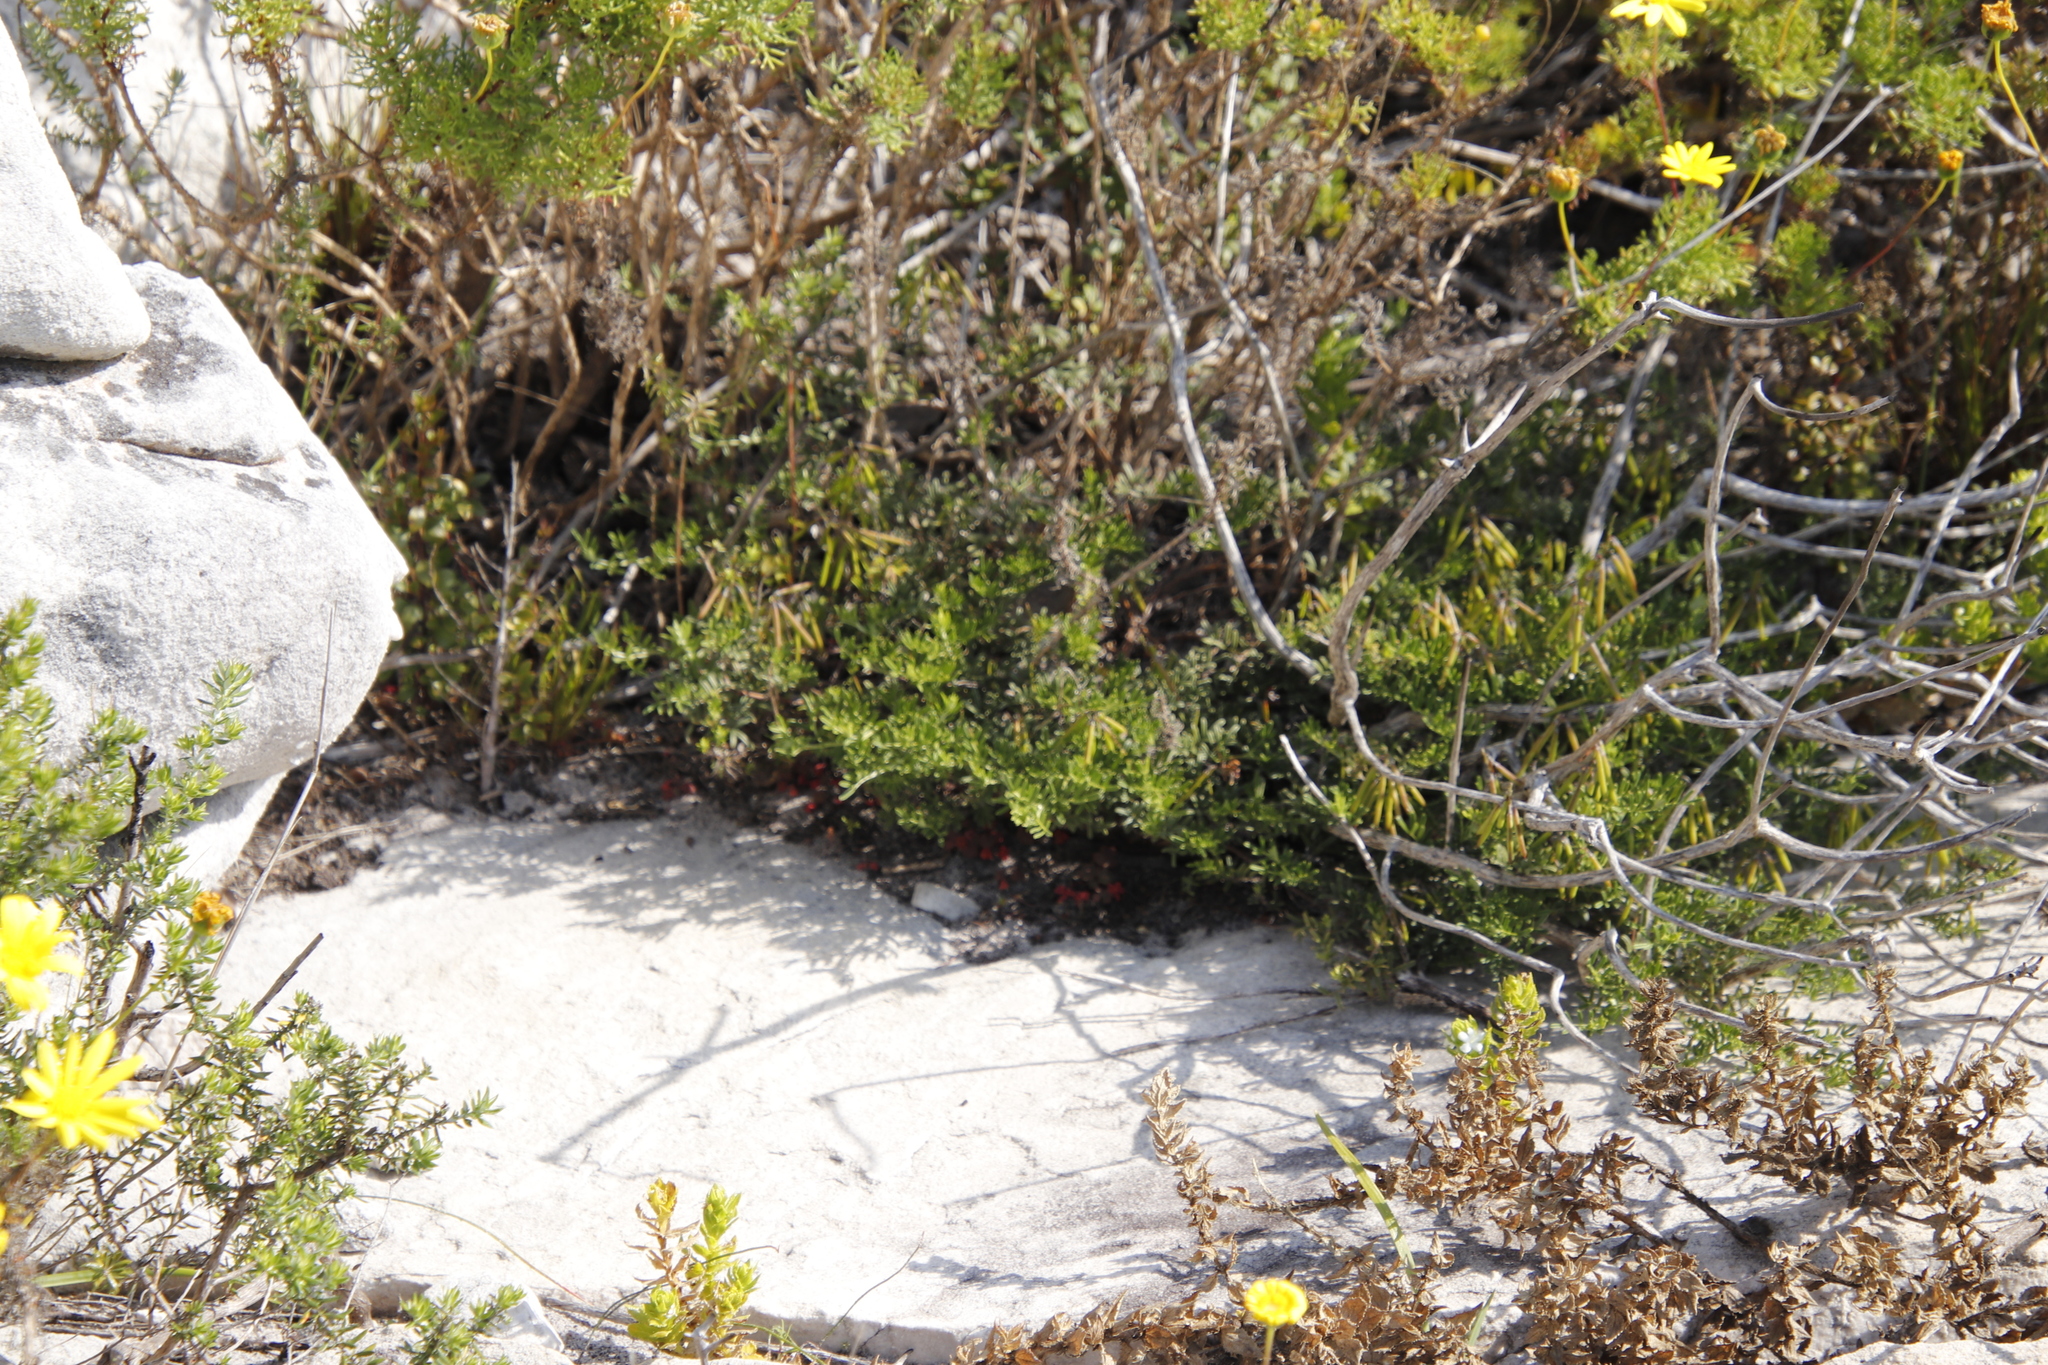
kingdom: Plantae
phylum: Tracheophyta
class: Magnoliopsida
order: Fabales
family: Fabaceae
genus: Indigofera
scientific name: Indigofera angustifolia
